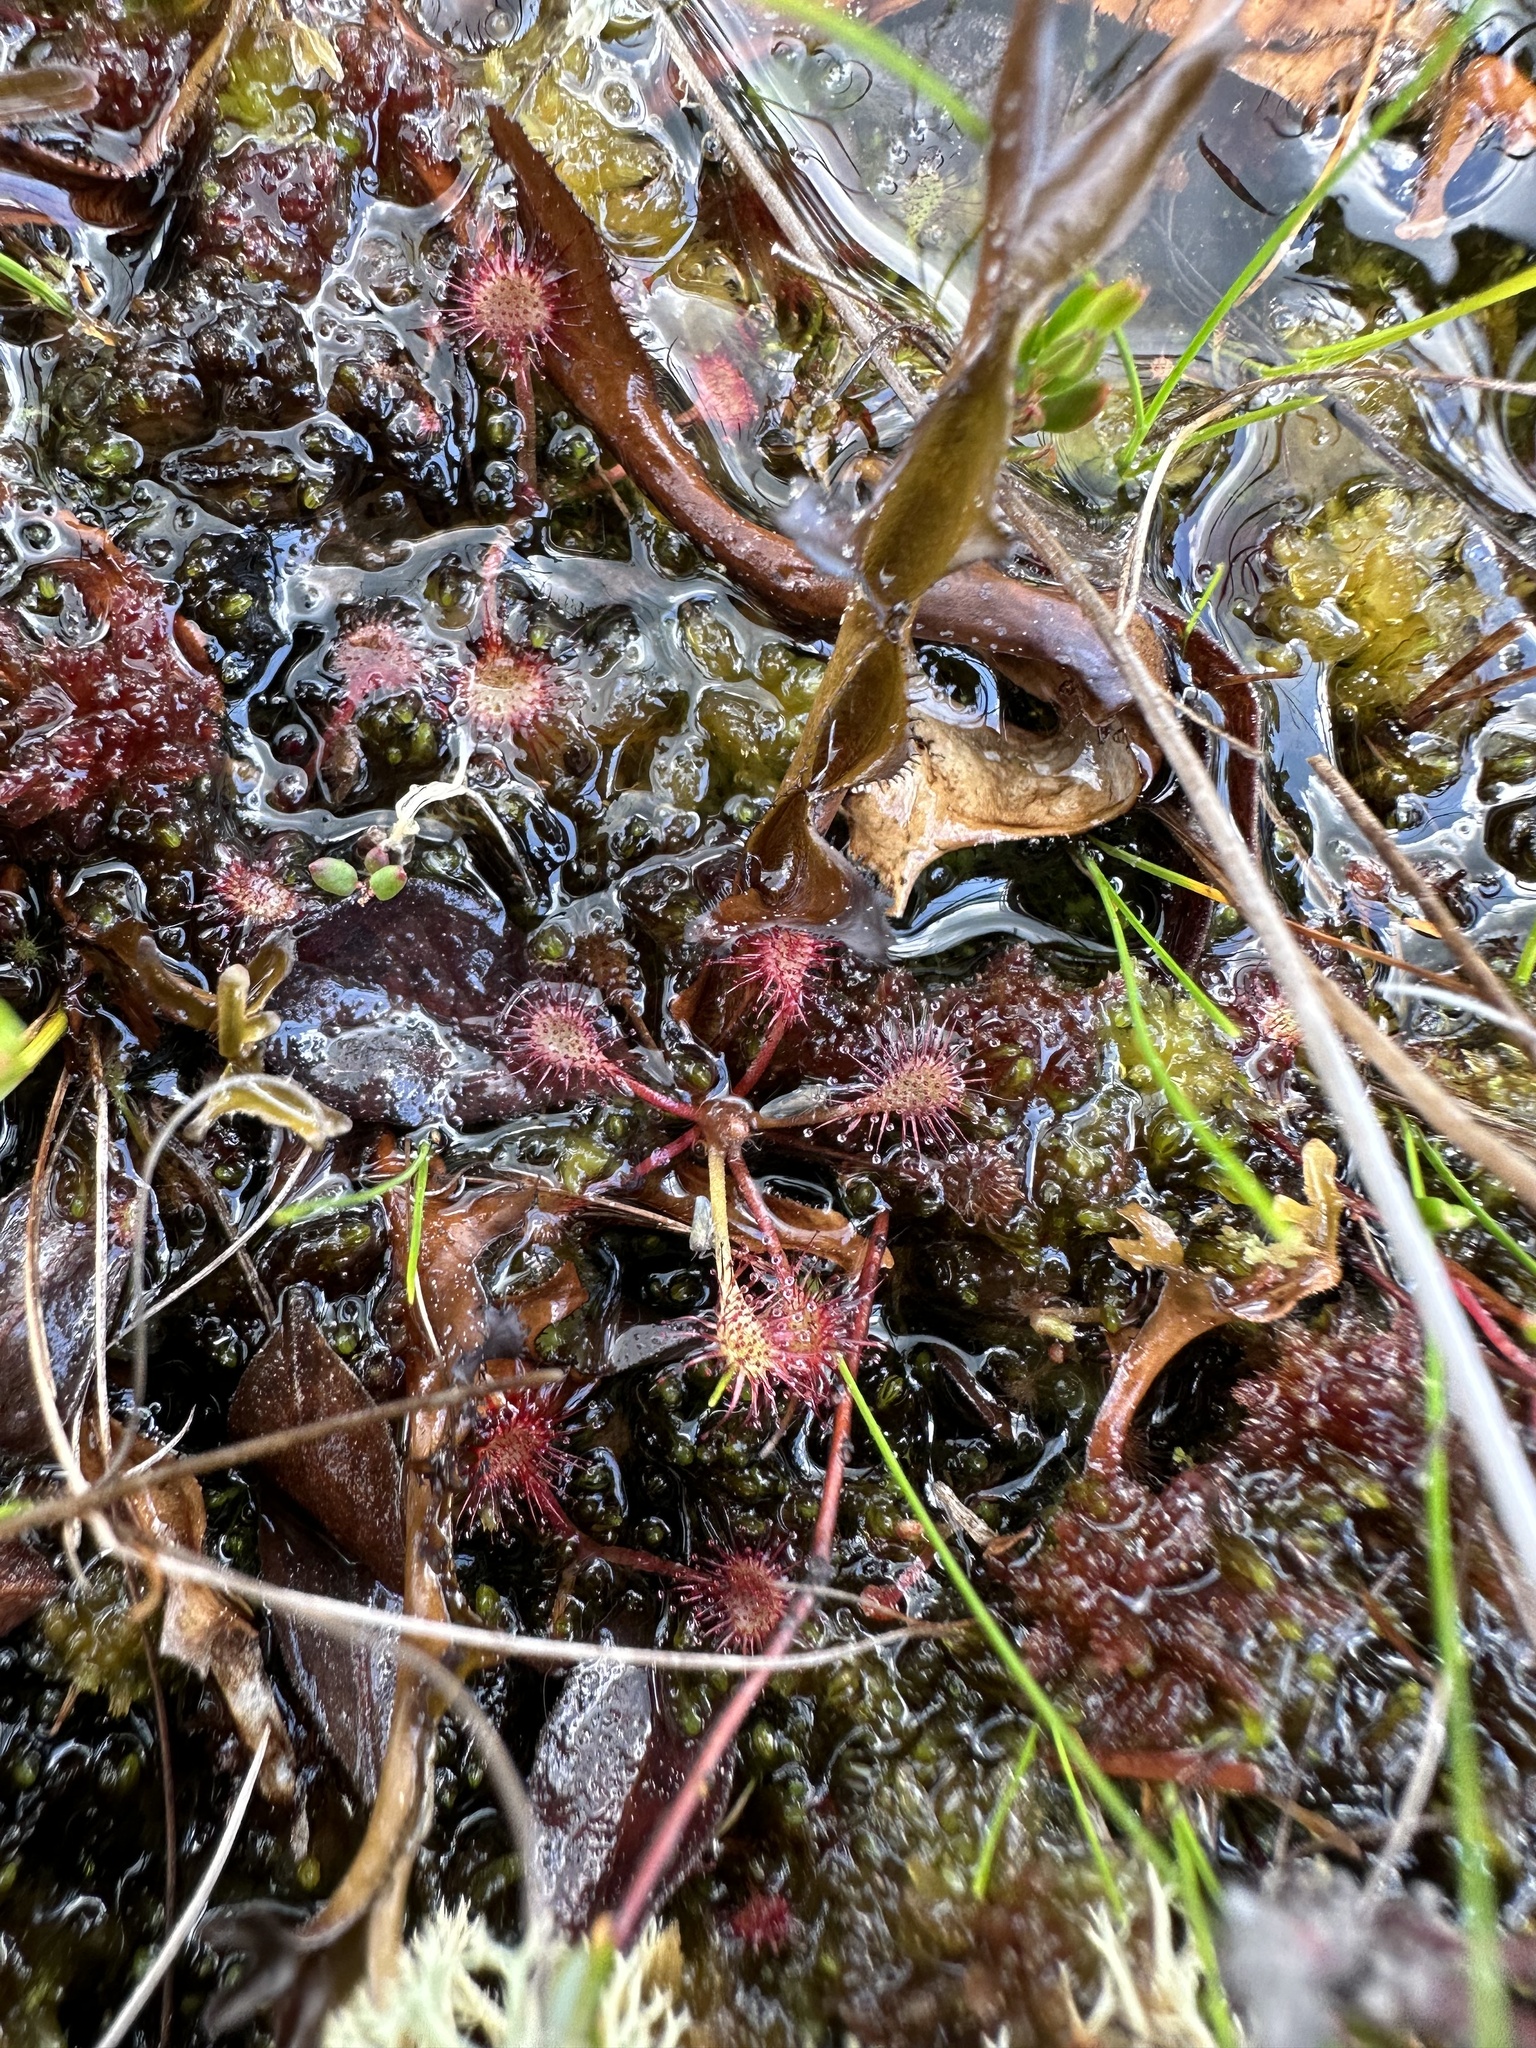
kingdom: Plantae
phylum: Tracheophyta
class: Magnoliopsida
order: Caryophyllales
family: Droseraceae
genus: Drosera
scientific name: Drosera intermedia
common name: Oblong-leaved sundew
